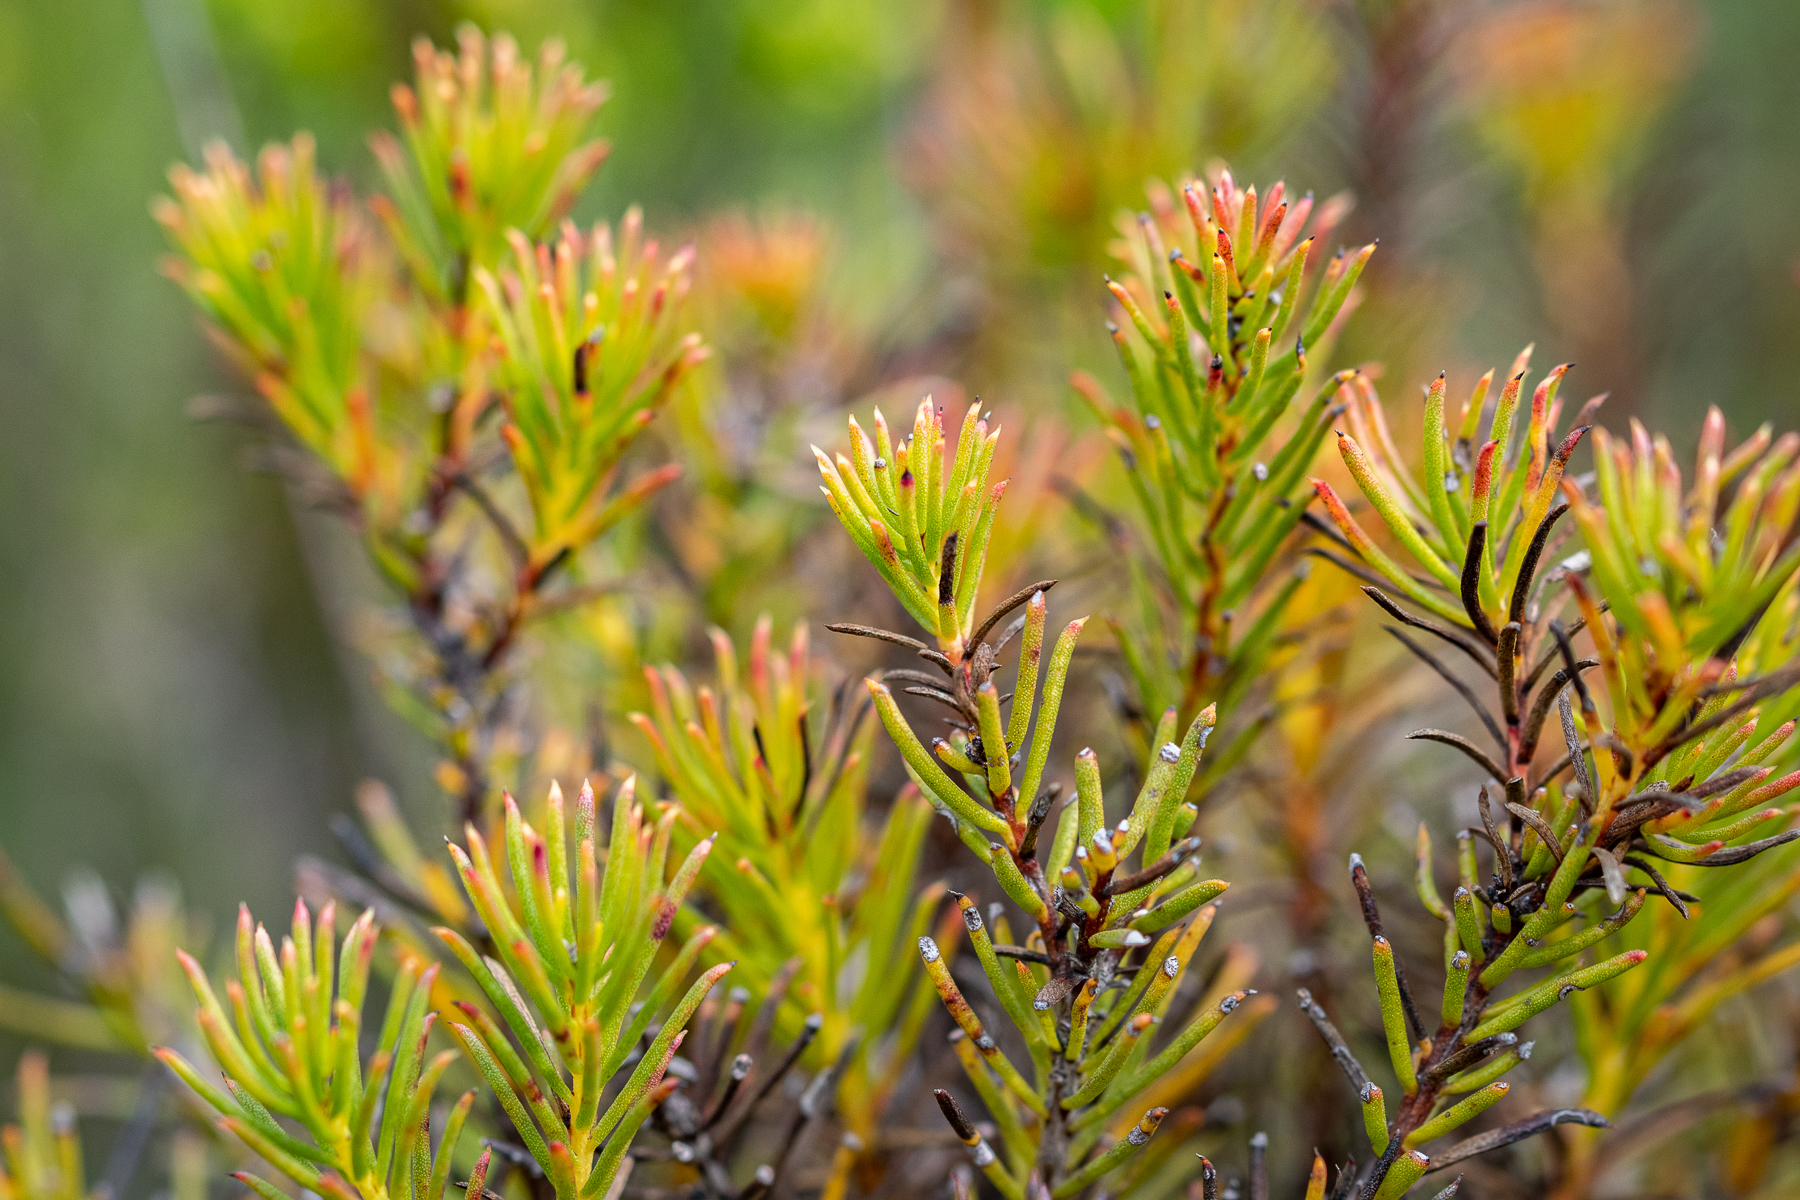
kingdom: Plantae
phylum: Tracheophyta
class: Magnoliopsida
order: Proteales
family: Proteaceae
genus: Protea
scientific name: Protea subulifolia
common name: Awl-leaf sugarbush
